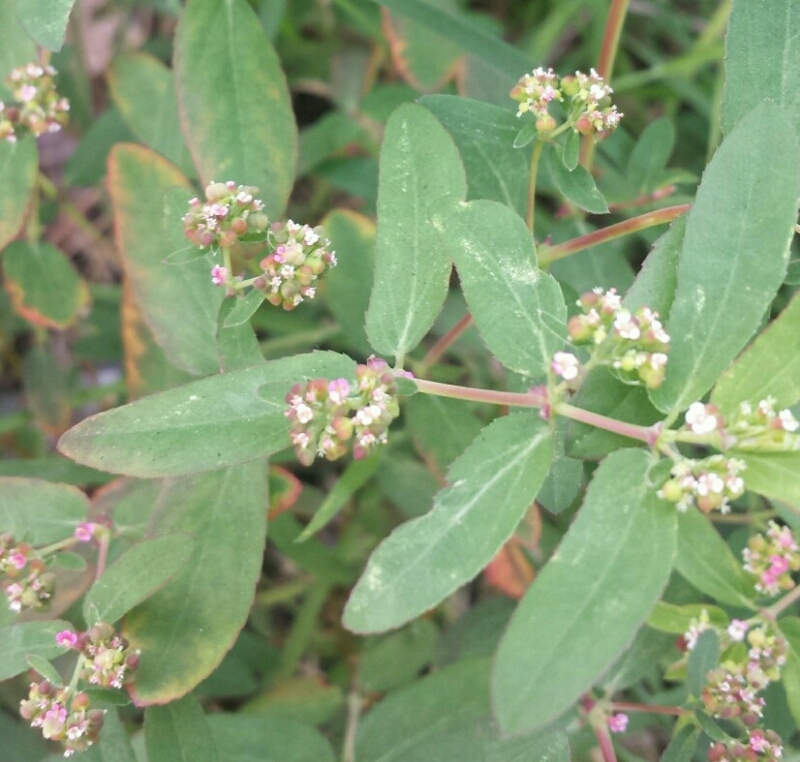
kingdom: Plantae
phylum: Tracheophyta
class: Magnoliopsida
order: Malpighiales
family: Euphorbiaceae
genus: Euphorbia
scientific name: Euphorbia hypericifolia
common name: Graceful sandmat
